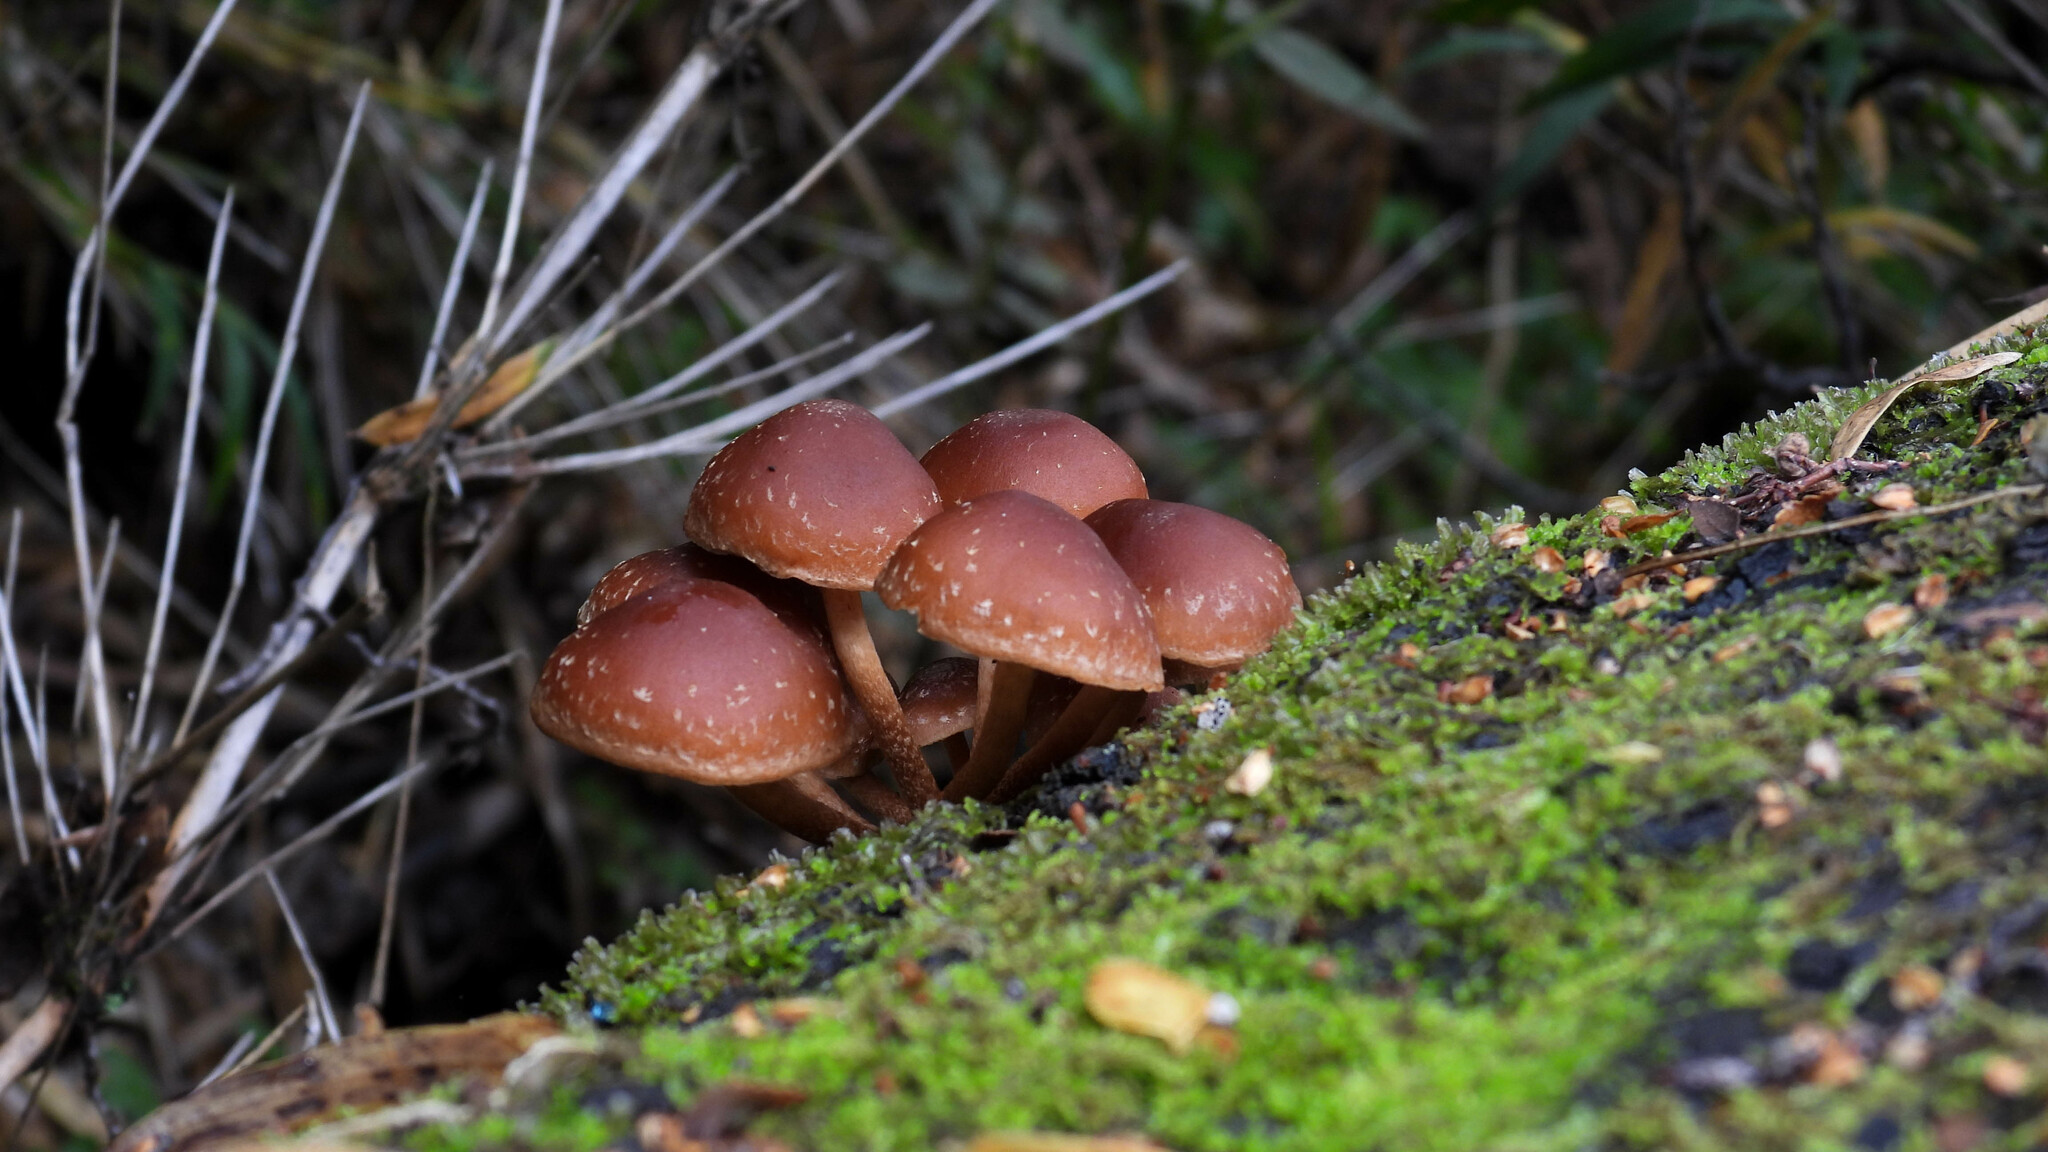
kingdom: Fungi
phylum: Basidiomycota
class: Agaricomycetes
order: Agaricales
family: Strophariaceae
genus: Hypholoma
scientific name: Hypholoma brunneum
